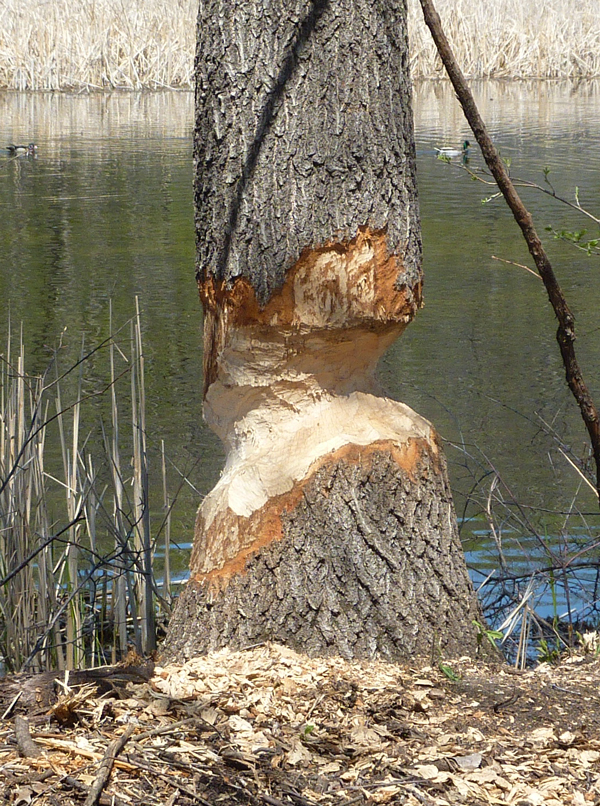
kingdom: Animalia
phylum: Chordata
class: Mammalia
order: Rodentia
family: Castoridae
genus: Castor
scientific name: Castor canadensis
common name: American beaver
